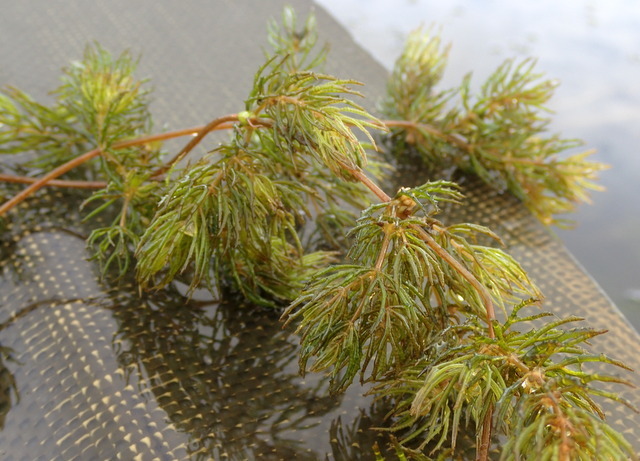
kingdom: Plantae
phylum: Tracheophyta
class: Magnoliopsida
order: Ceratophyllales
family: Ceratophyllaceae
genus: Ceratophyllum
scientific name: Ceratophyllum demersum
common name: Rigid hornwort
